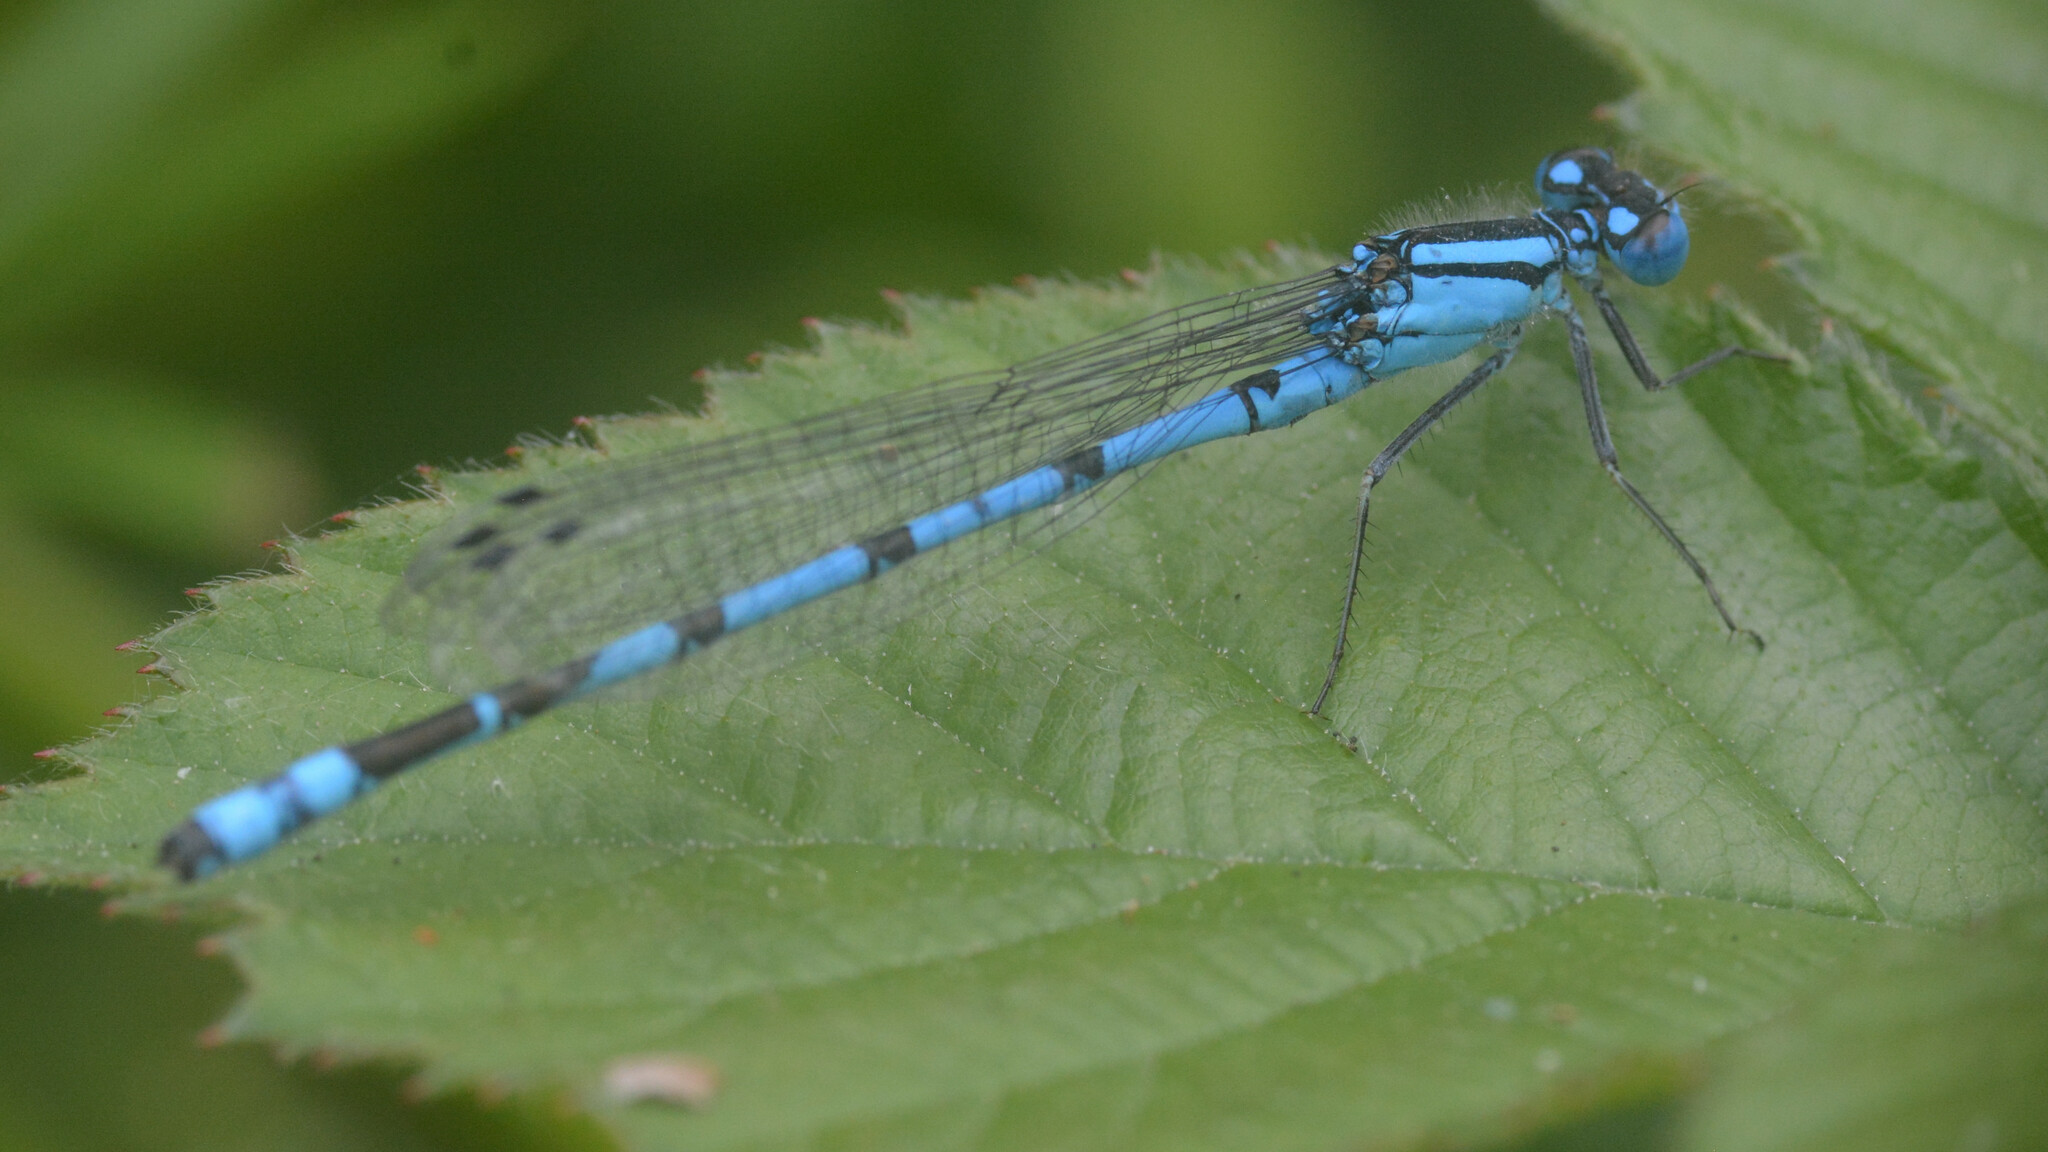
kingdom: Animalia
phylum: Arthropoda
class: Insecta
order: Odonata
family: Coenagrionidae
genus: Enallagma
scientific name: Enallagma cyathigerum
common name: Common blue damselfly
